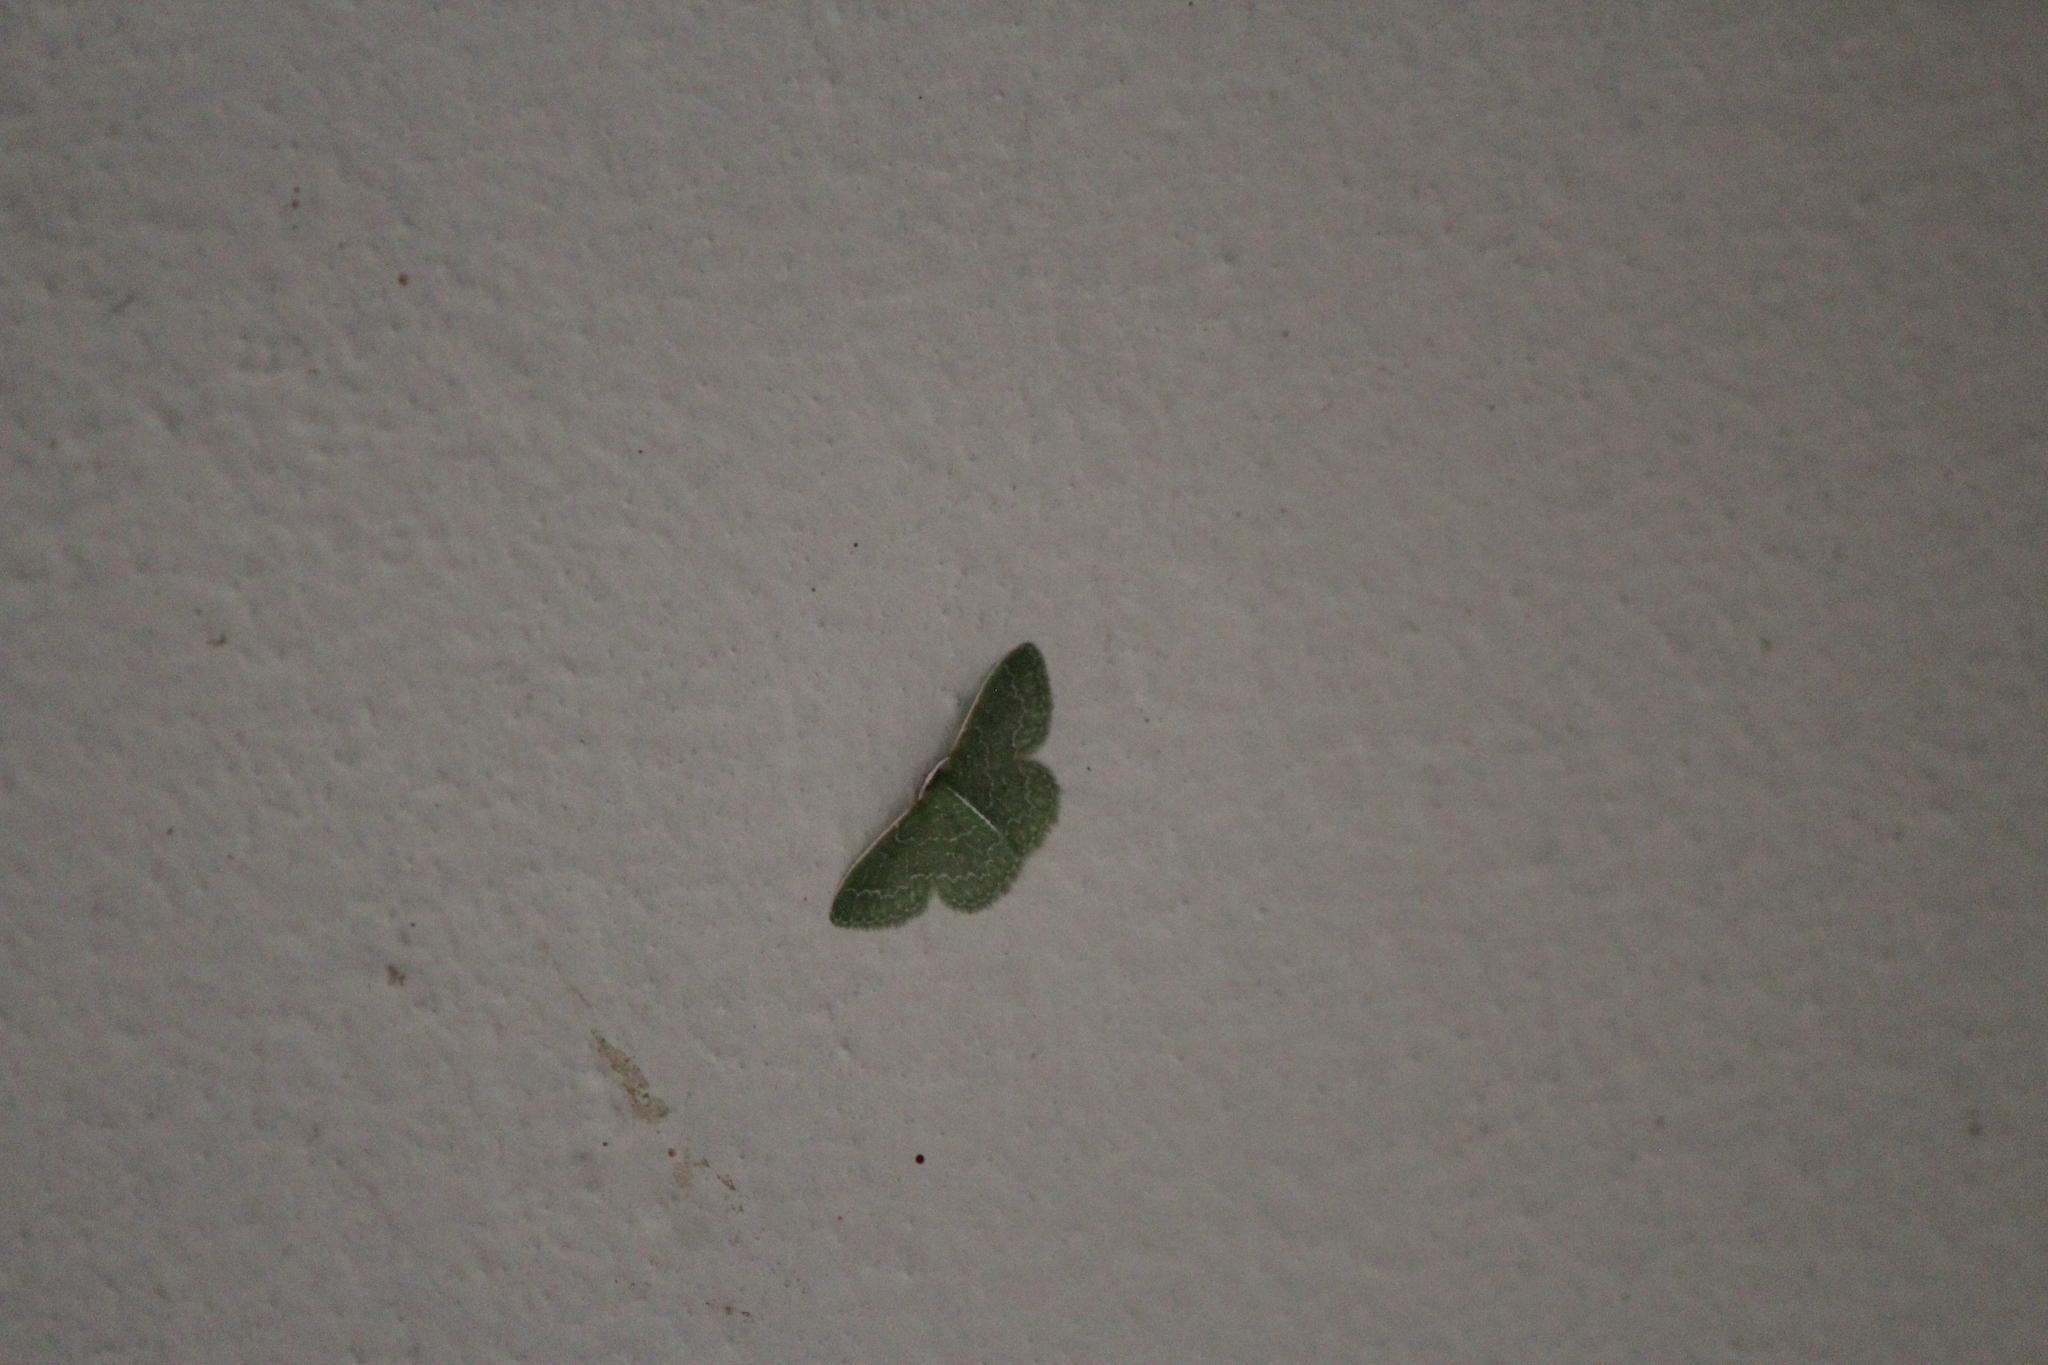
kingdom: Animalia
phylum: Arthropoda
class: Insecta
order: Lepidoptera
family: Geometridae
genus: Synchlora
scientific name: Synchlora frondaria
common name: Southern emerald
